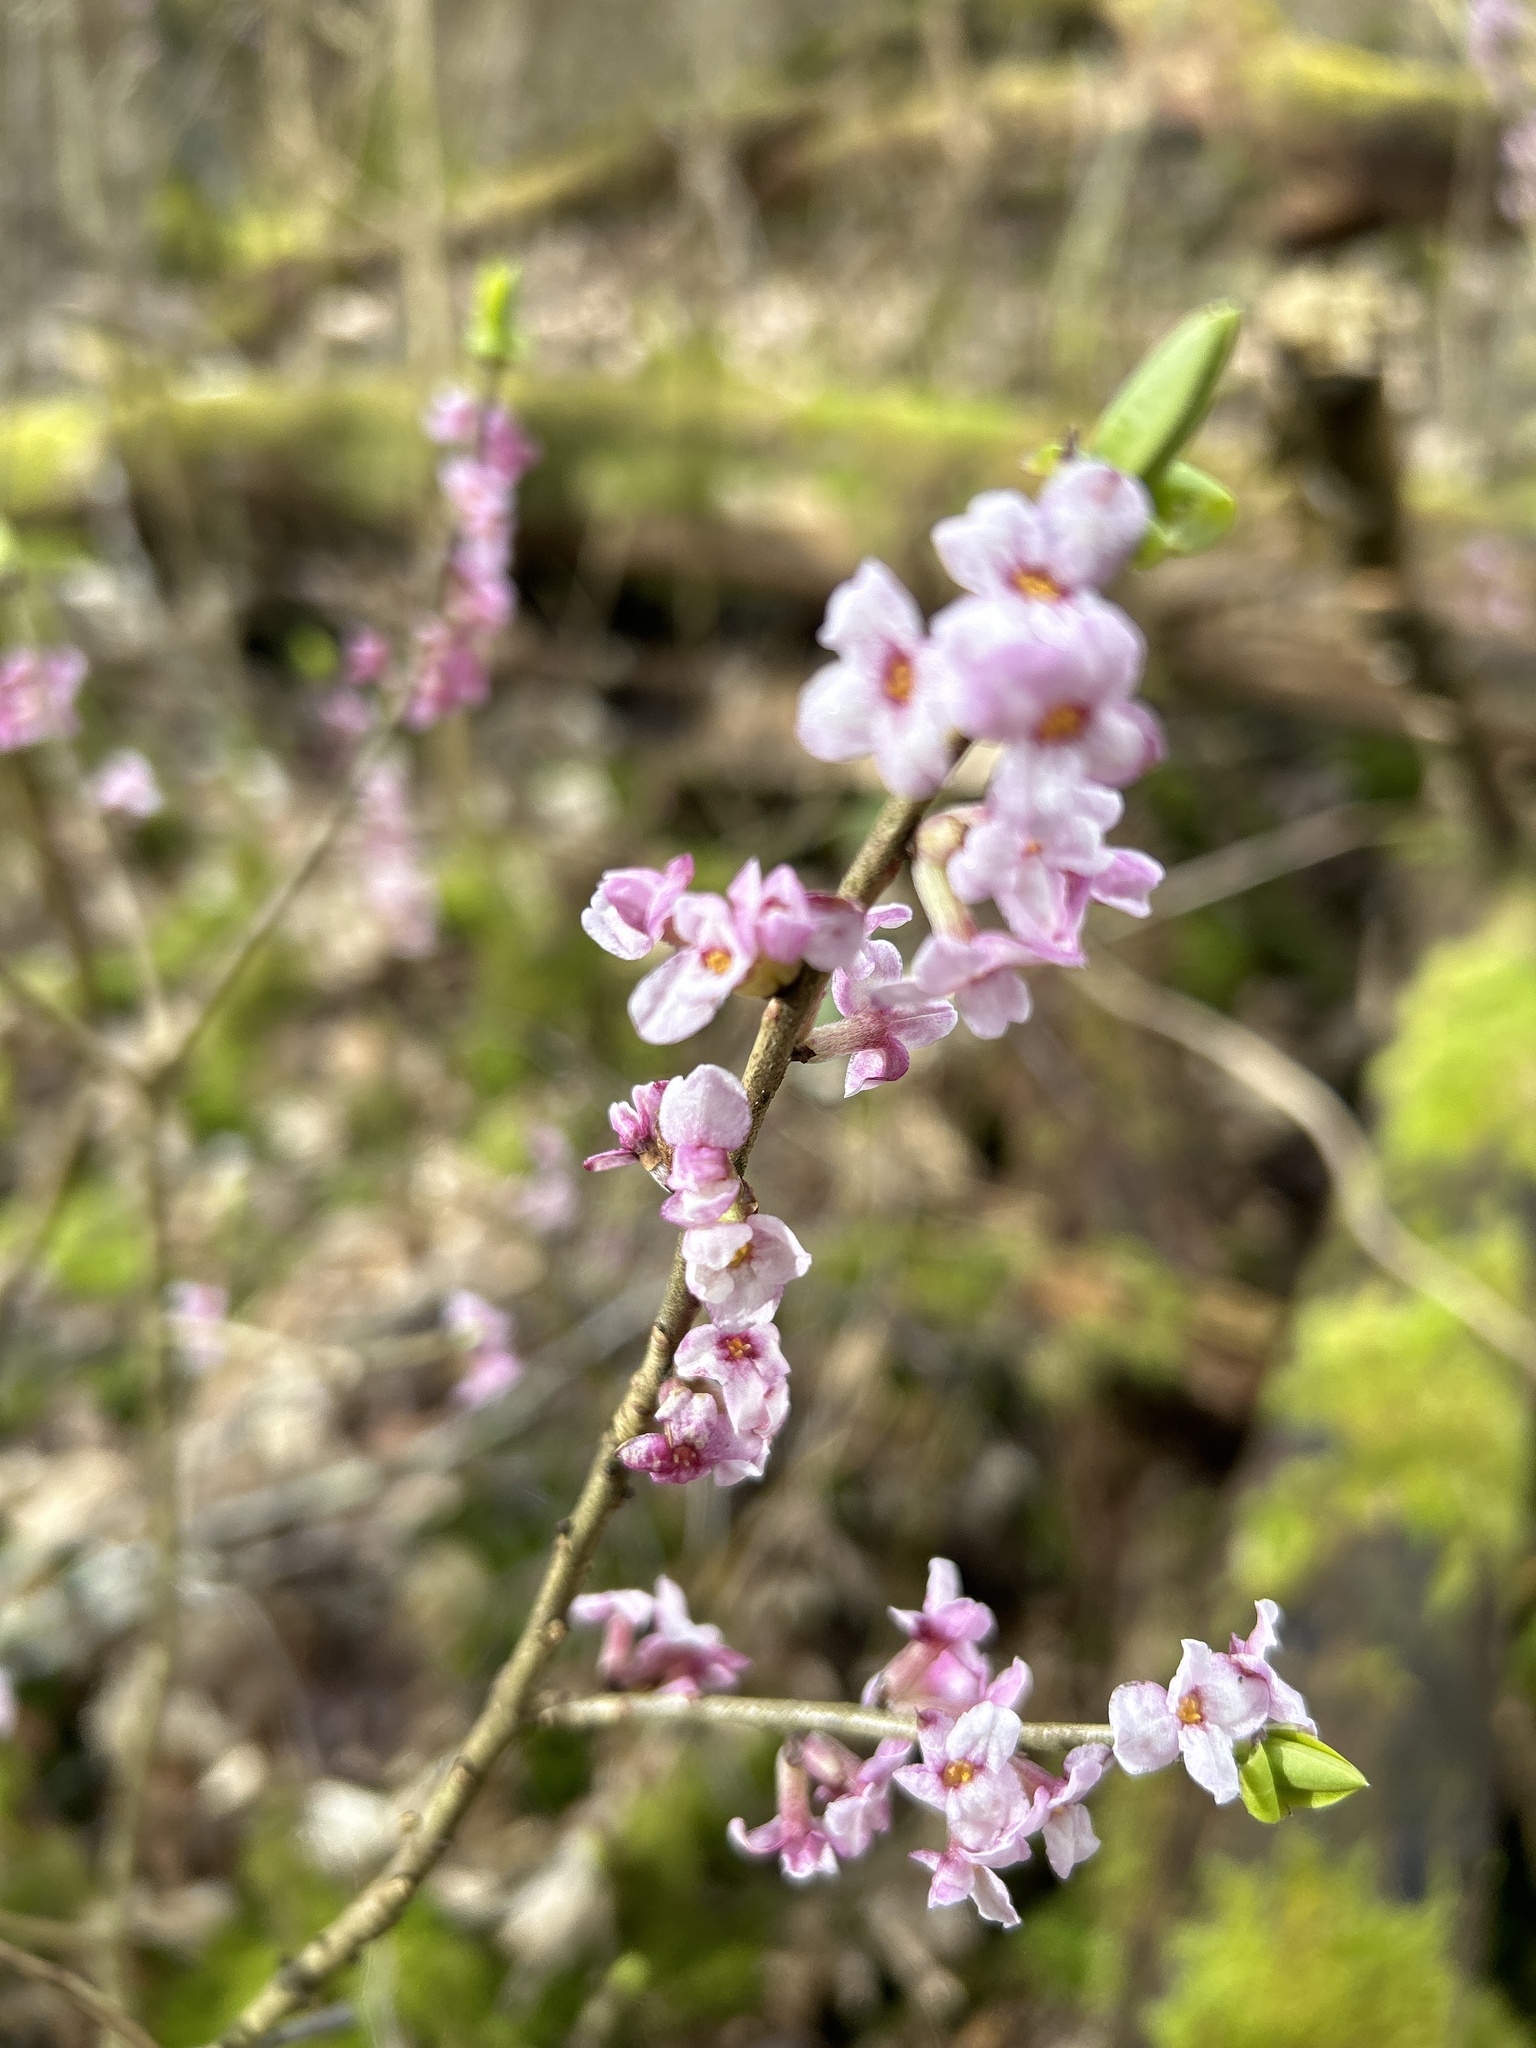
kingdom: Plantae
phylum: Tracheophyta
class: Magnoliopsida
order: Malvales
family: Thymelaeaceae
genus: Daphne
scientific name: Daphne mezereum
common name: Mezereon
